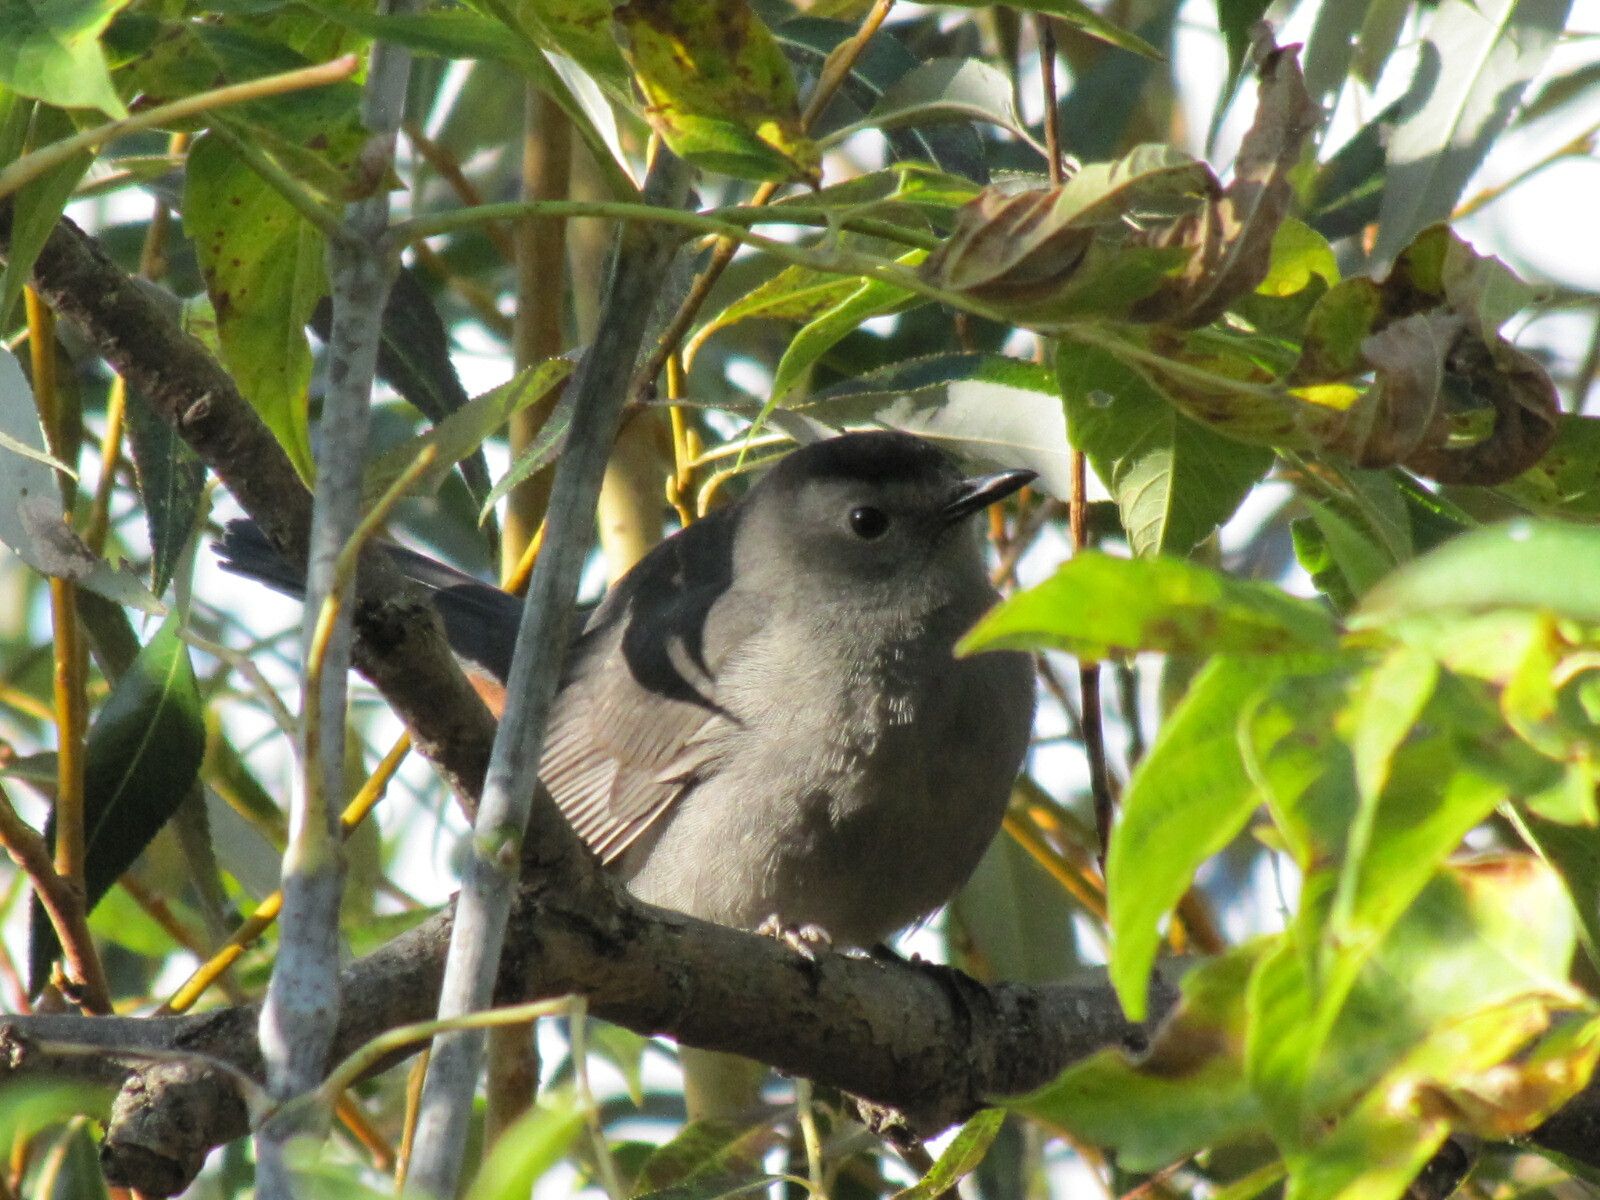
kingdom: Animalia
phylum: Chordata
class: Aves
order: Passeriformes
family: Mimidae
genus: Dumetella
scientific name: Dumetella carolinensis
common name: Gray catbird
